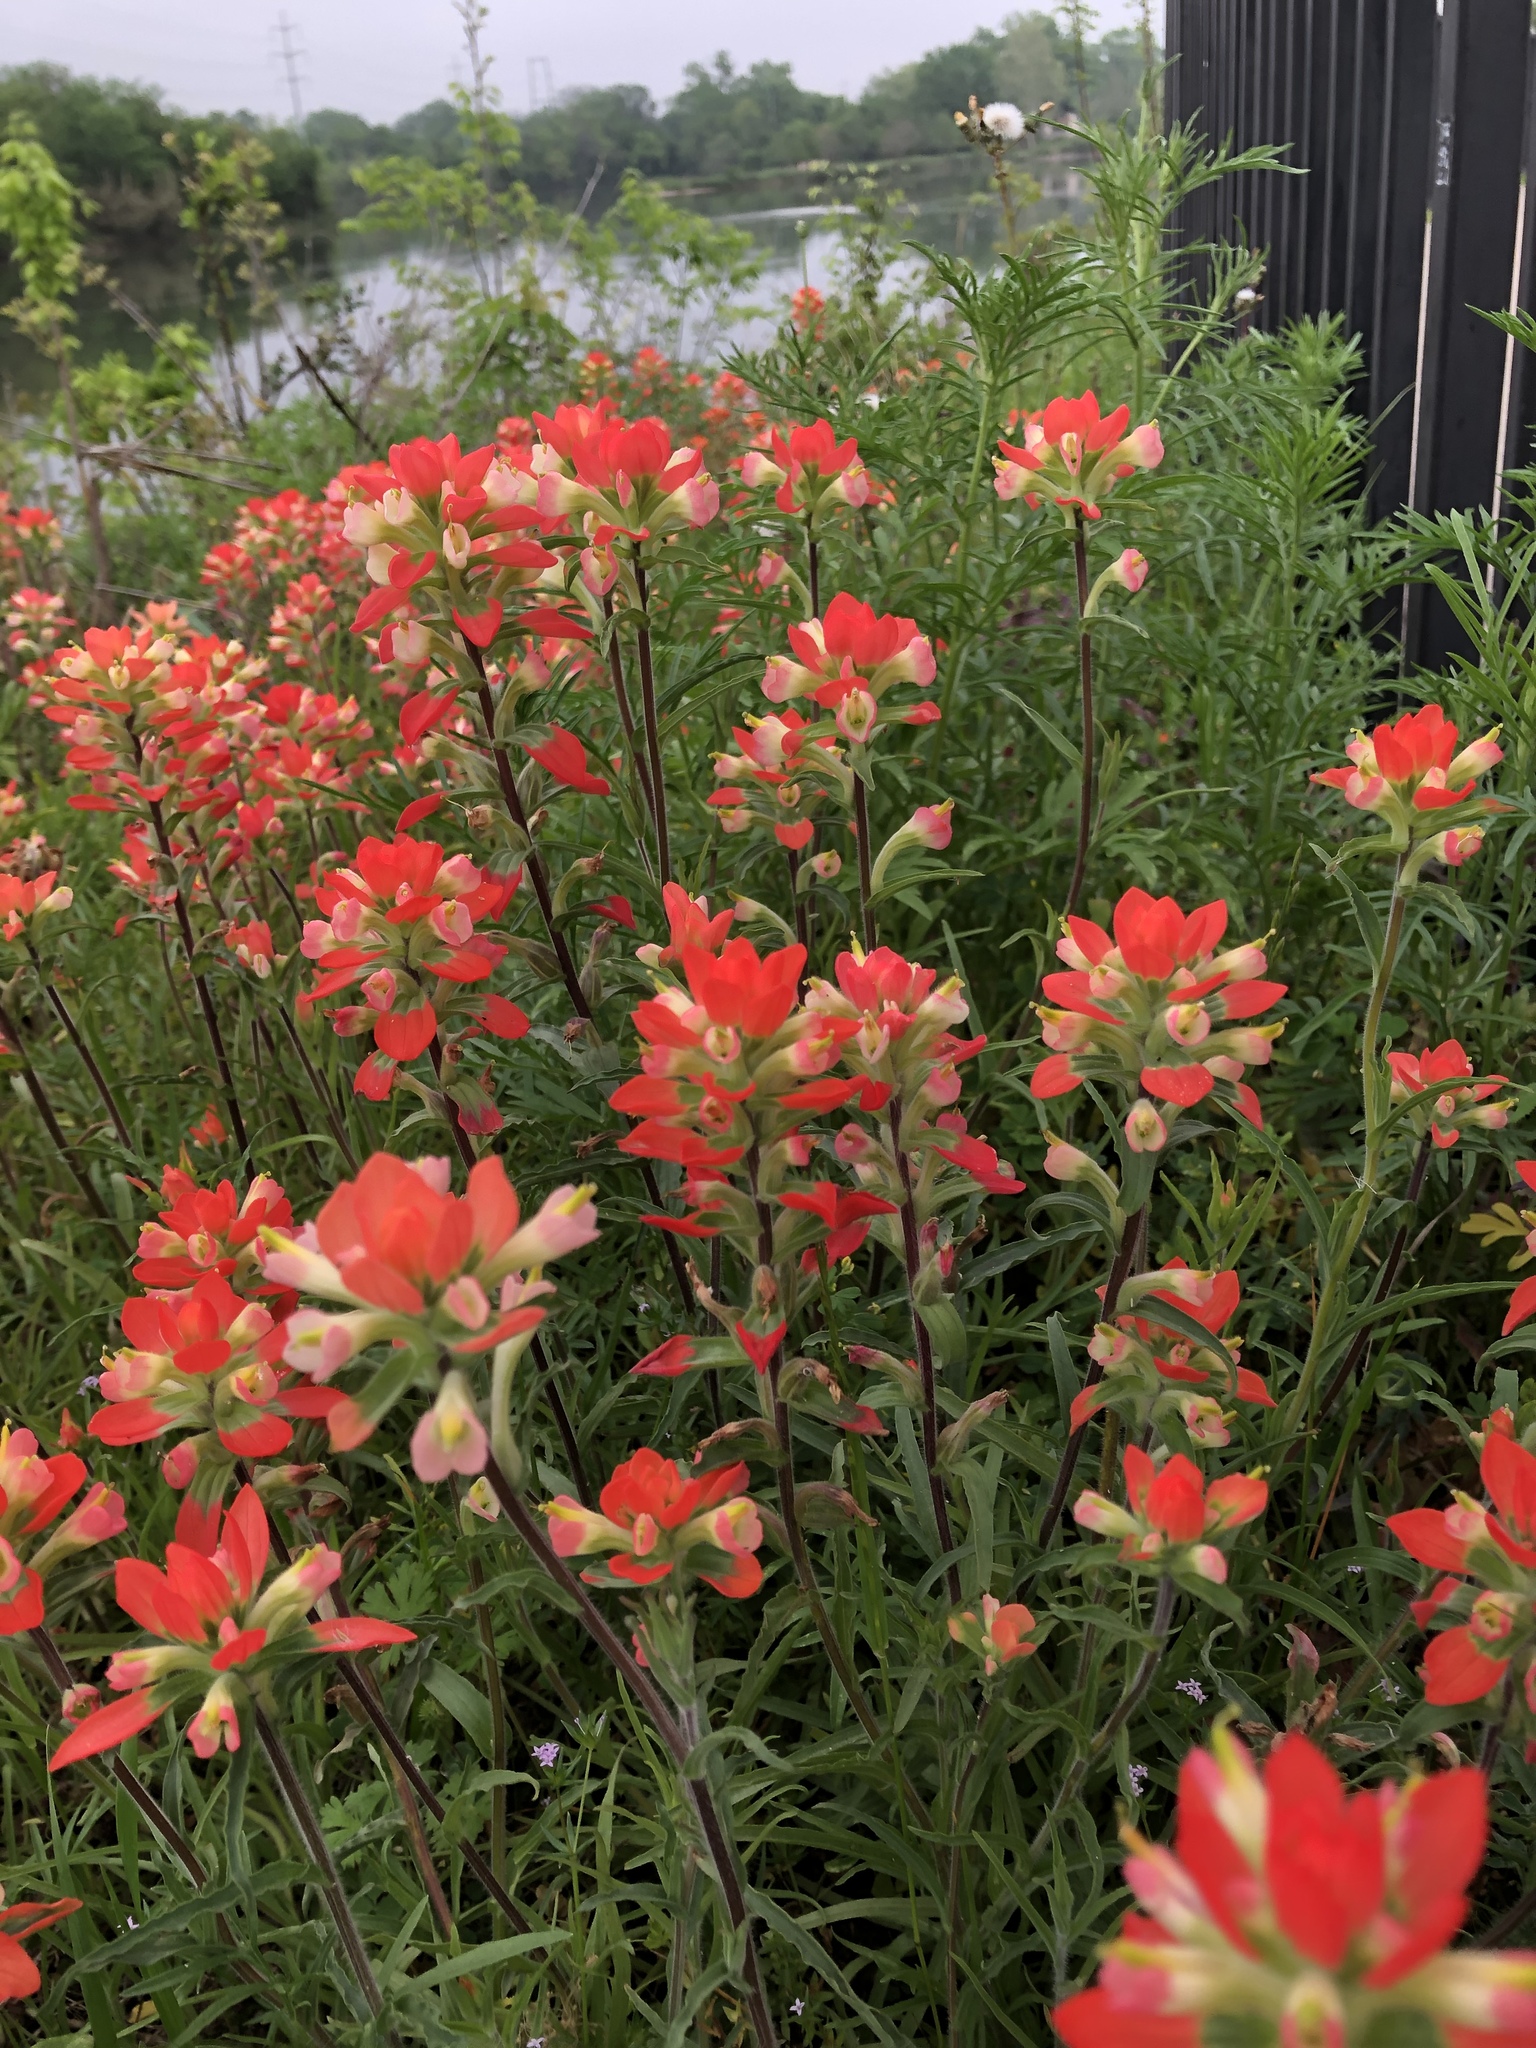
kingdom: Plantae
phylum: Tracheophyta
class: Magnoliopsida
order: Lamiales
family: Orobanchaceae
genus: Castilleja
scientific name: Castilleja indivisa
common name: Texas paintbrush
